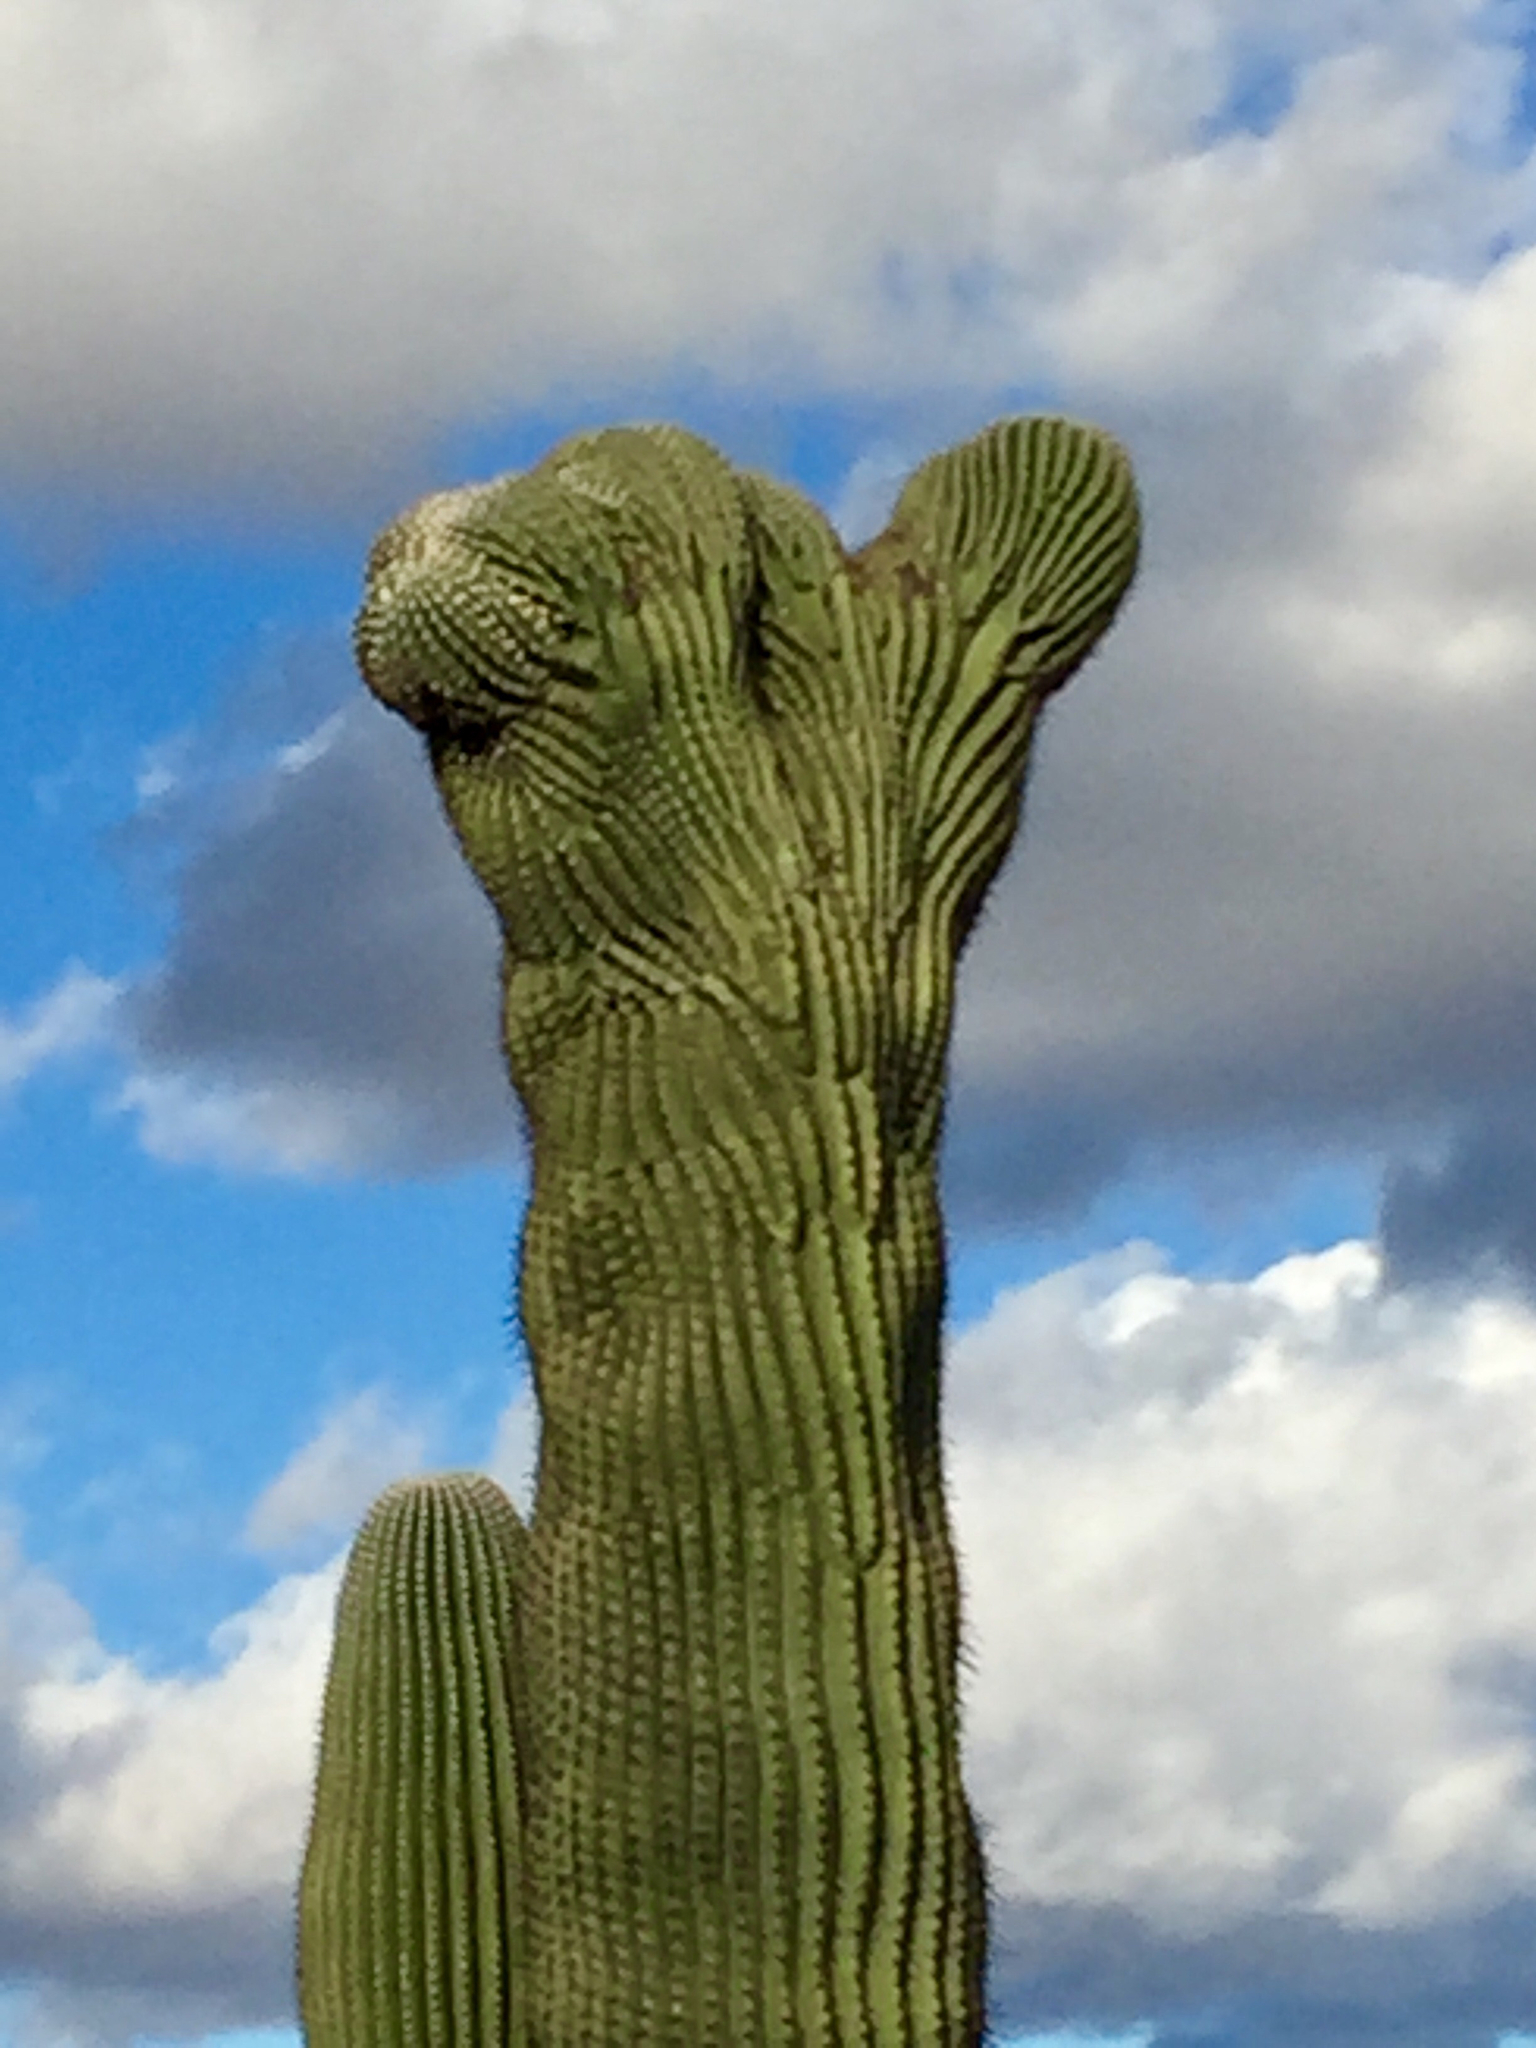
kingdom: Plantae
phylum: Tracheophyta
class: Magnoliopsida
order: Caryophyllales
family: Cactaceae
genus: Carnegiea
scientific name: Carnegiea gigantea
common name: Saguaro
